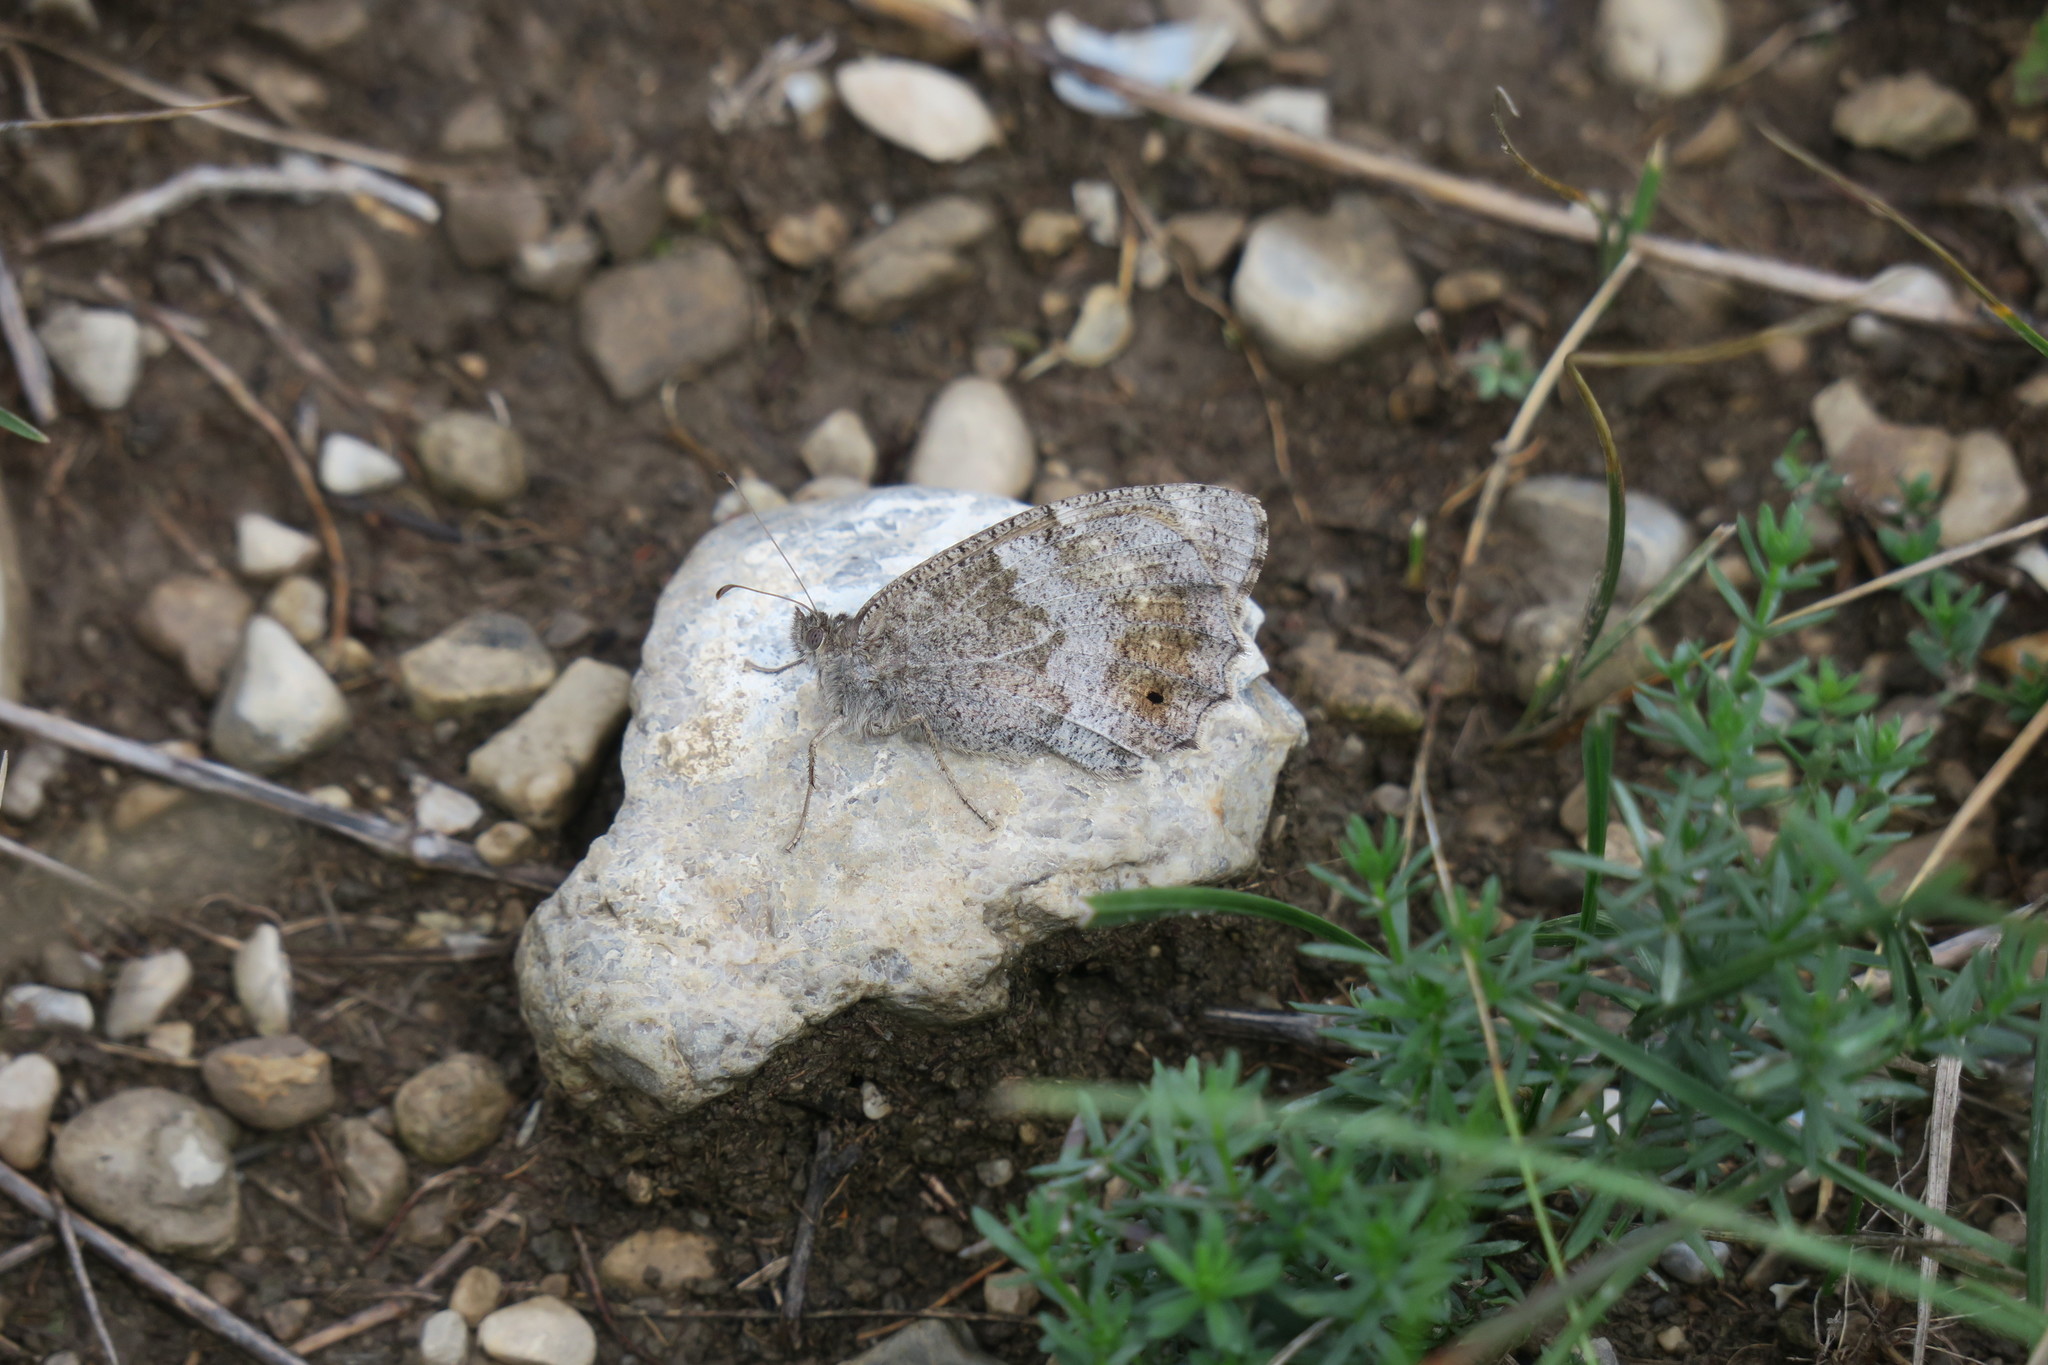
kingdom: Animalia
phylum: Arthropoda
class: Insecta
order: Lepidoptera
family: Nymphalidae
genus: Hipparchia
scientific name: Hipparchia statilinus
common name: Tree grayling
